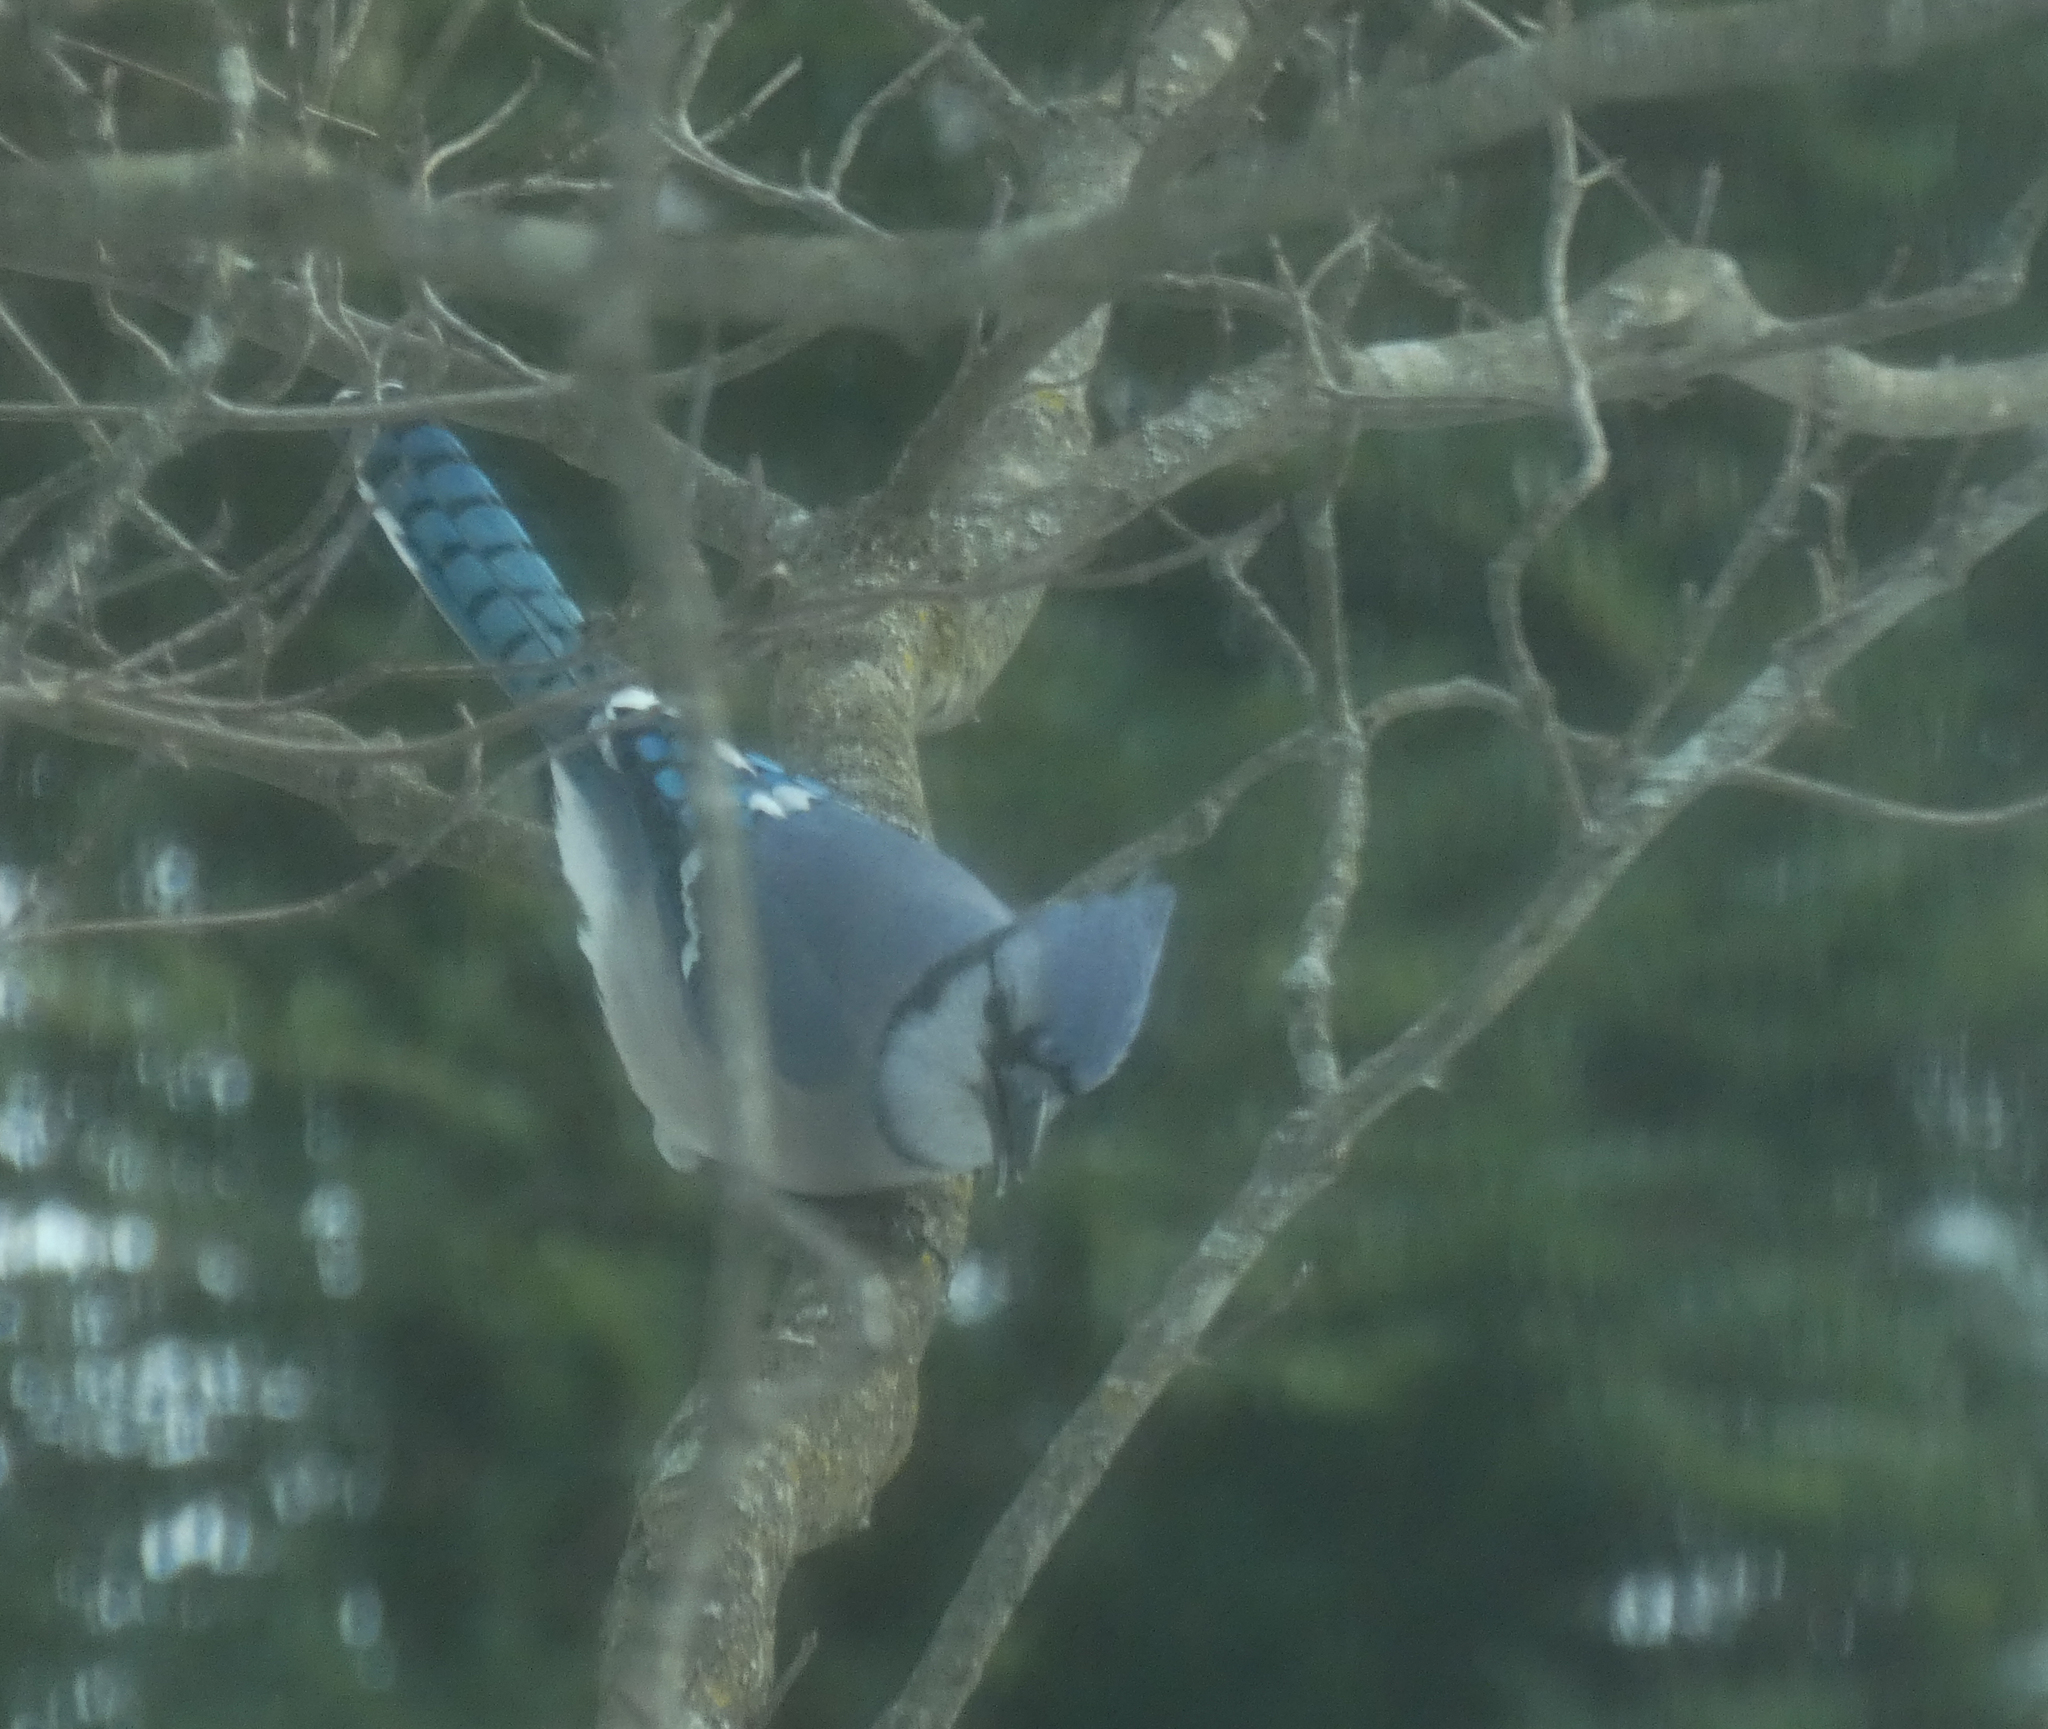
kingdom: Animalia
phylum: Chordata
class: Aves
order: Passeriformes
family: Corvidae
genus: Cyanocitta
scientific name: Cyanocitta cristata
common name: Blue jay
